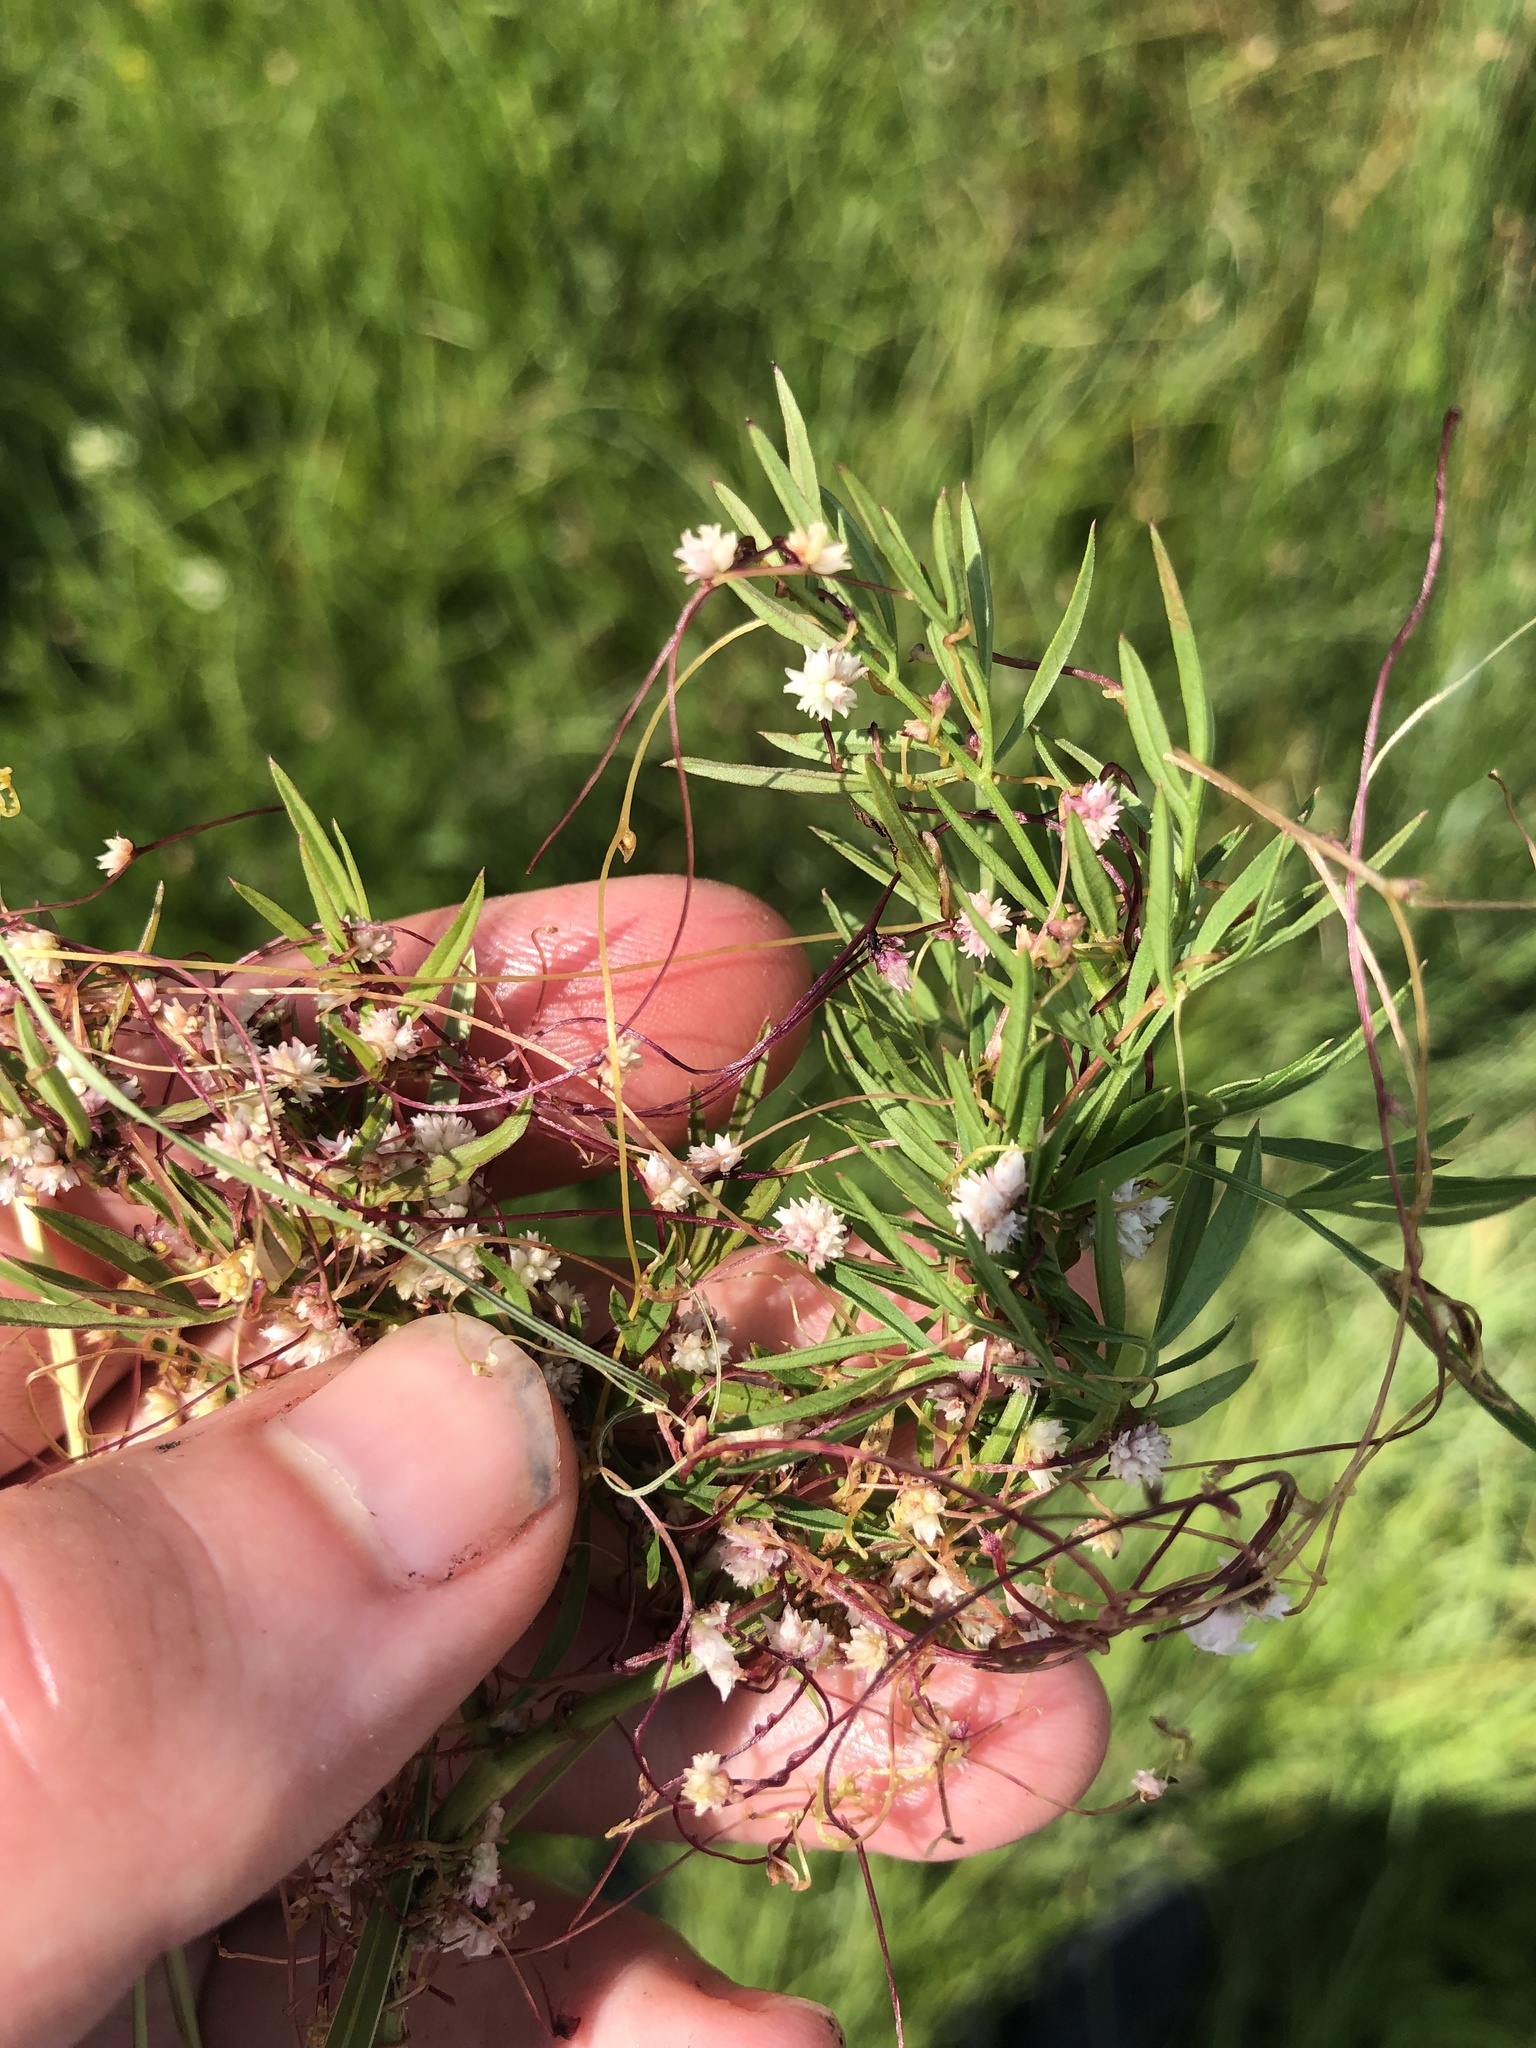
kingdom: Plantae
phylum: Tracheophyta
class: Magnoliopsida
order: Solanales
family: Convolvulaceae
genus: Cuscuta
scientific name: Cuscuta epithymum
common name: Clover dodder
